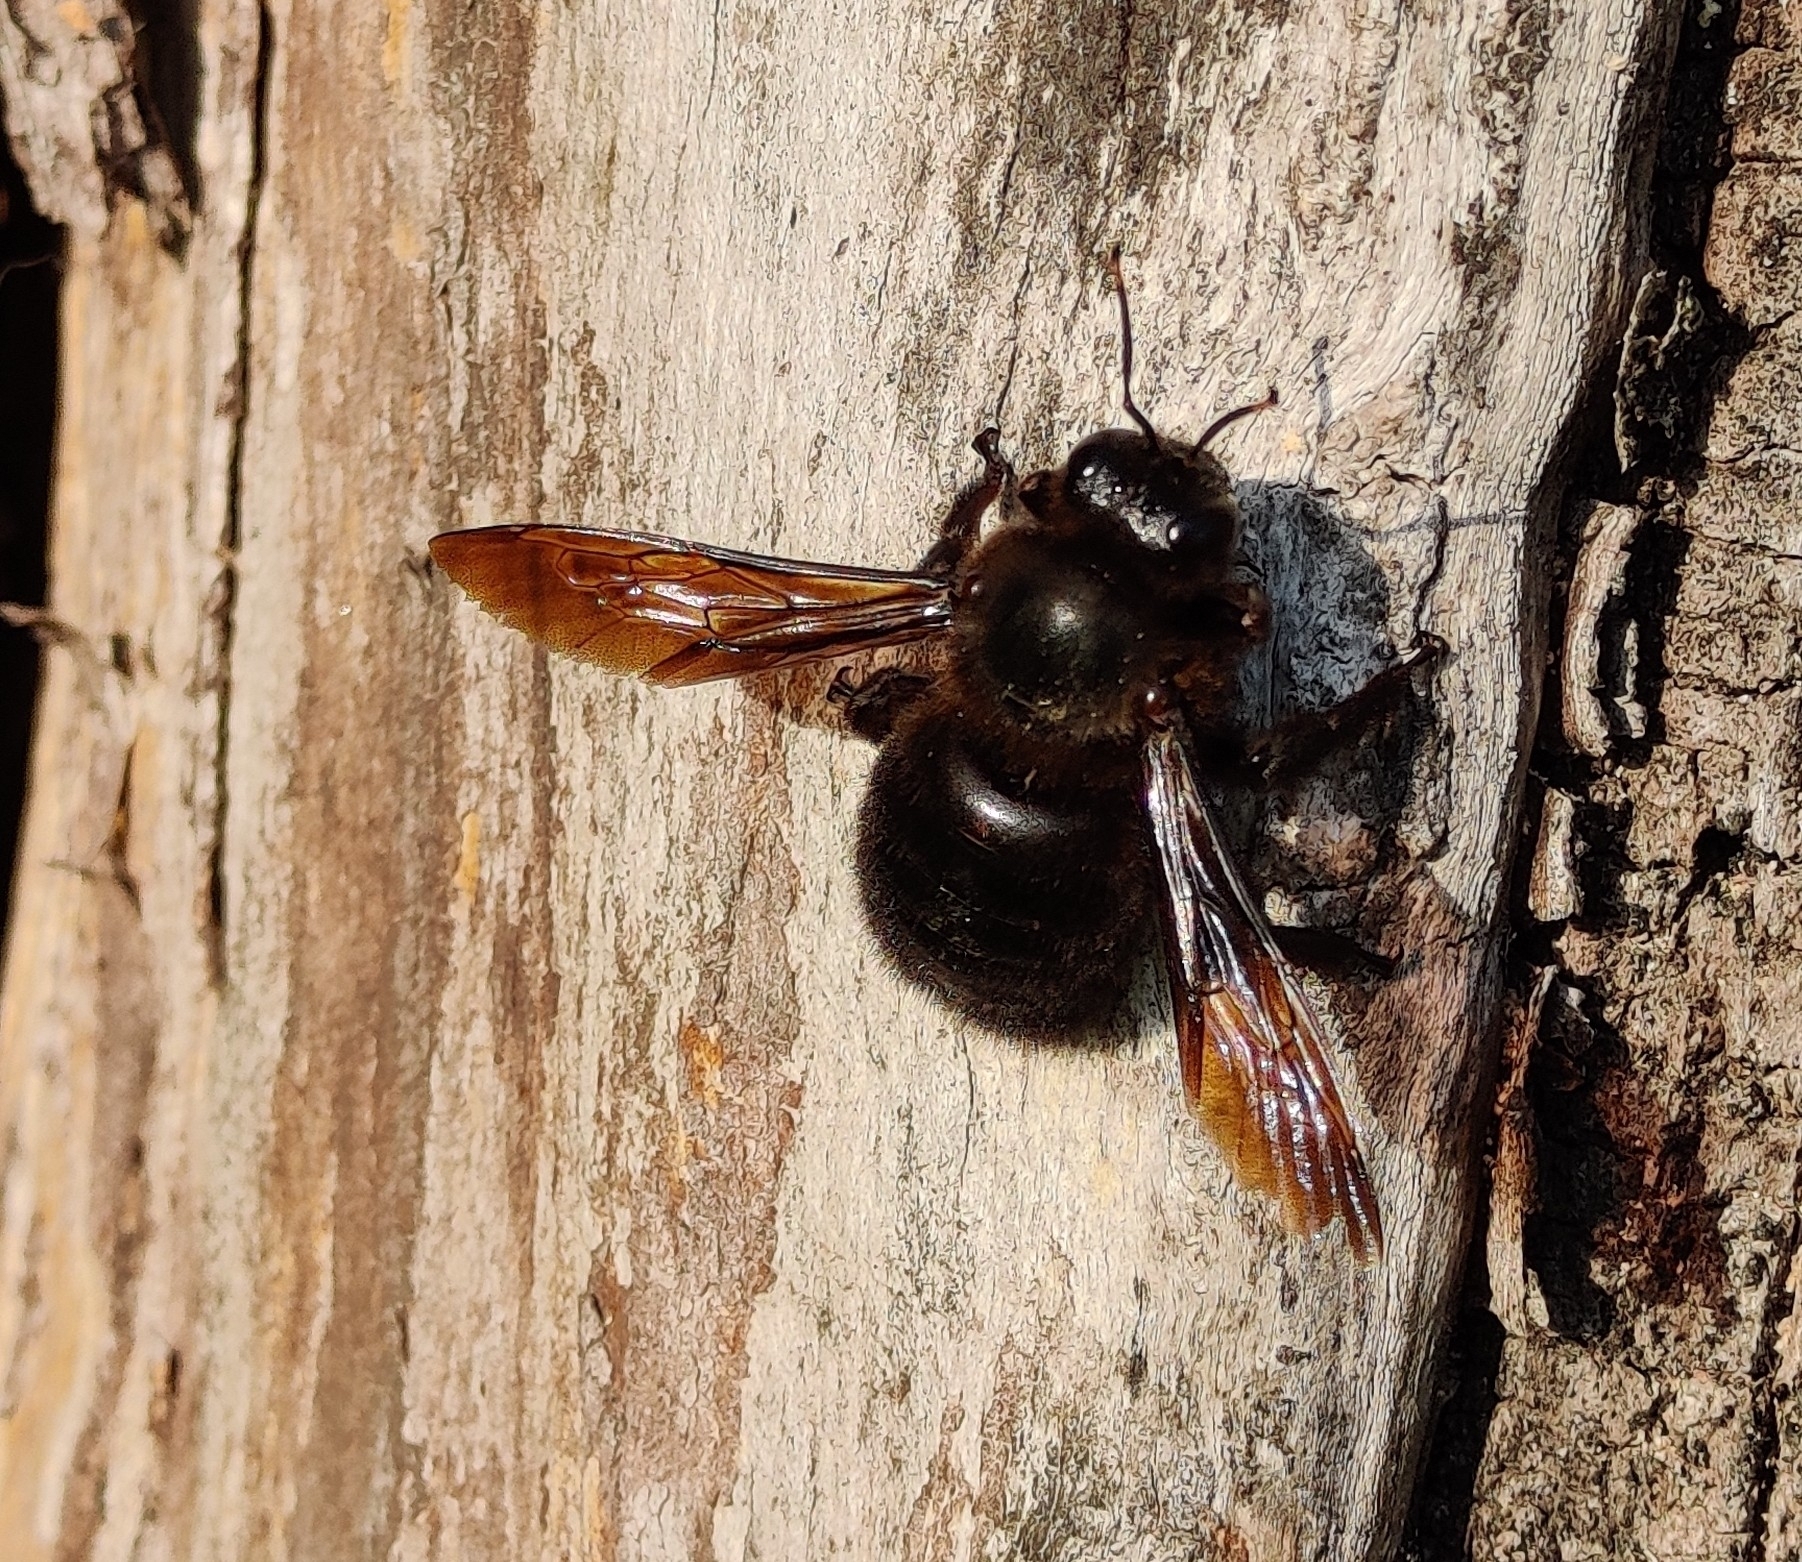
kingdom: Animalia
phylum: Arthropoda
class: Insecta
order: Hymenoptera
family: Apidae
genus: Xylocopa
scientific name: Xylocopa violacea
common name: Violet carpenter bee
